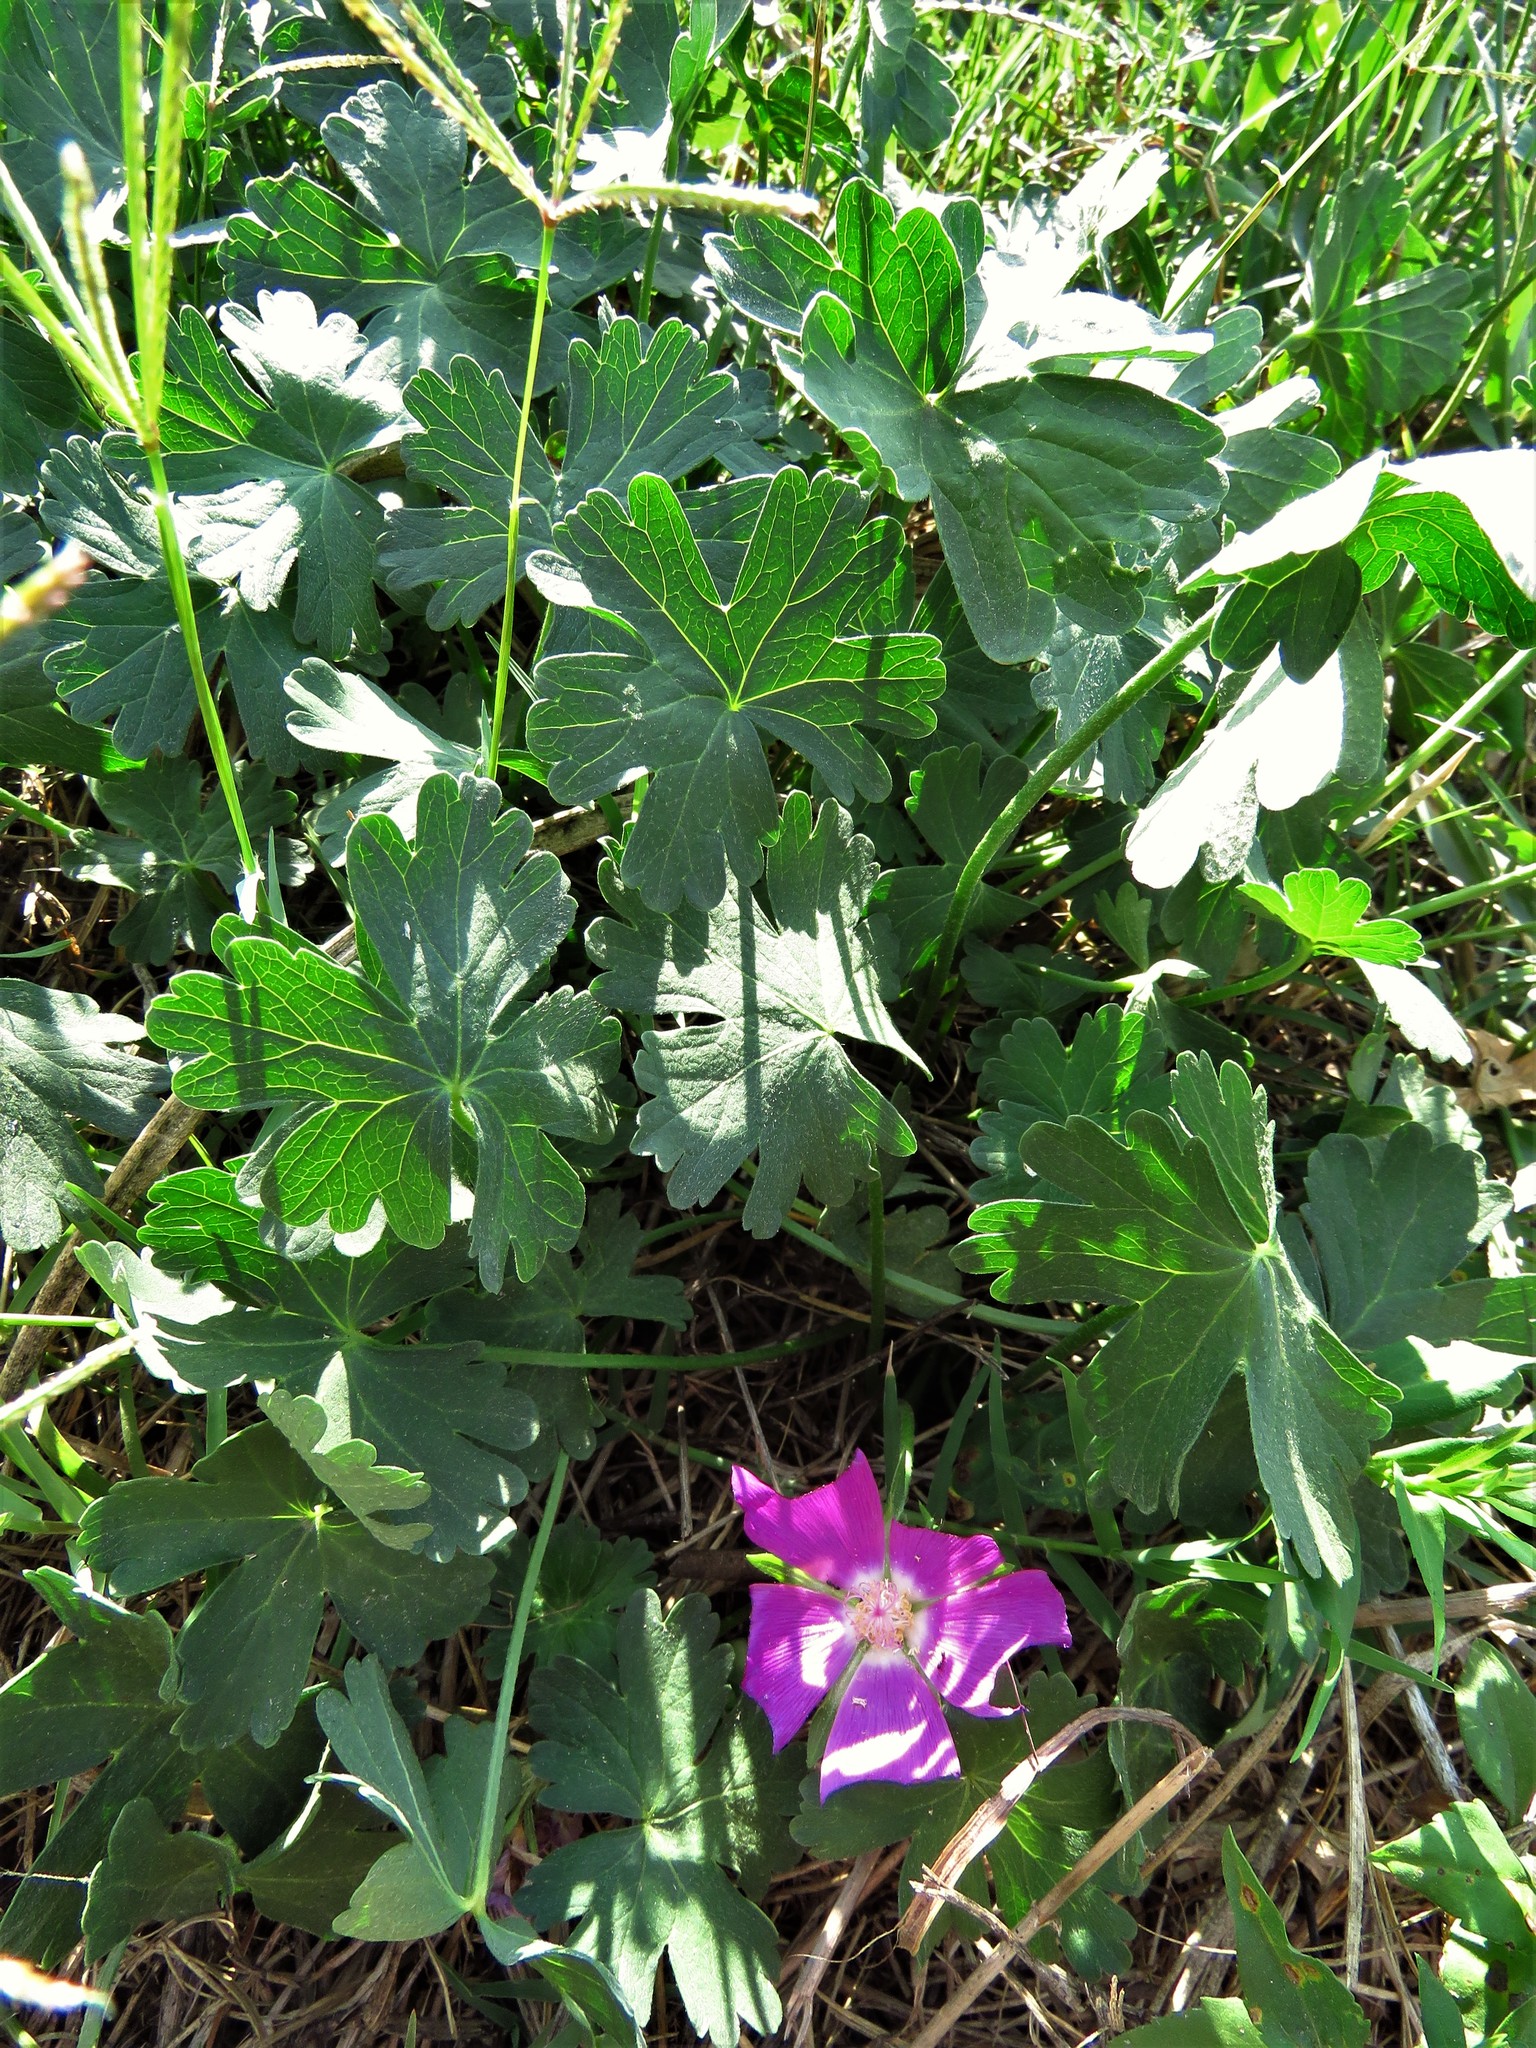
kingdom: Plantae
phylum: Tracheophyta
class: Magnoliopsida
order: Malvales
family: Malvaceae
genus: Callirhoe
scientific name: Callirhoe involucrata
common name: Purple poppy-mallow
